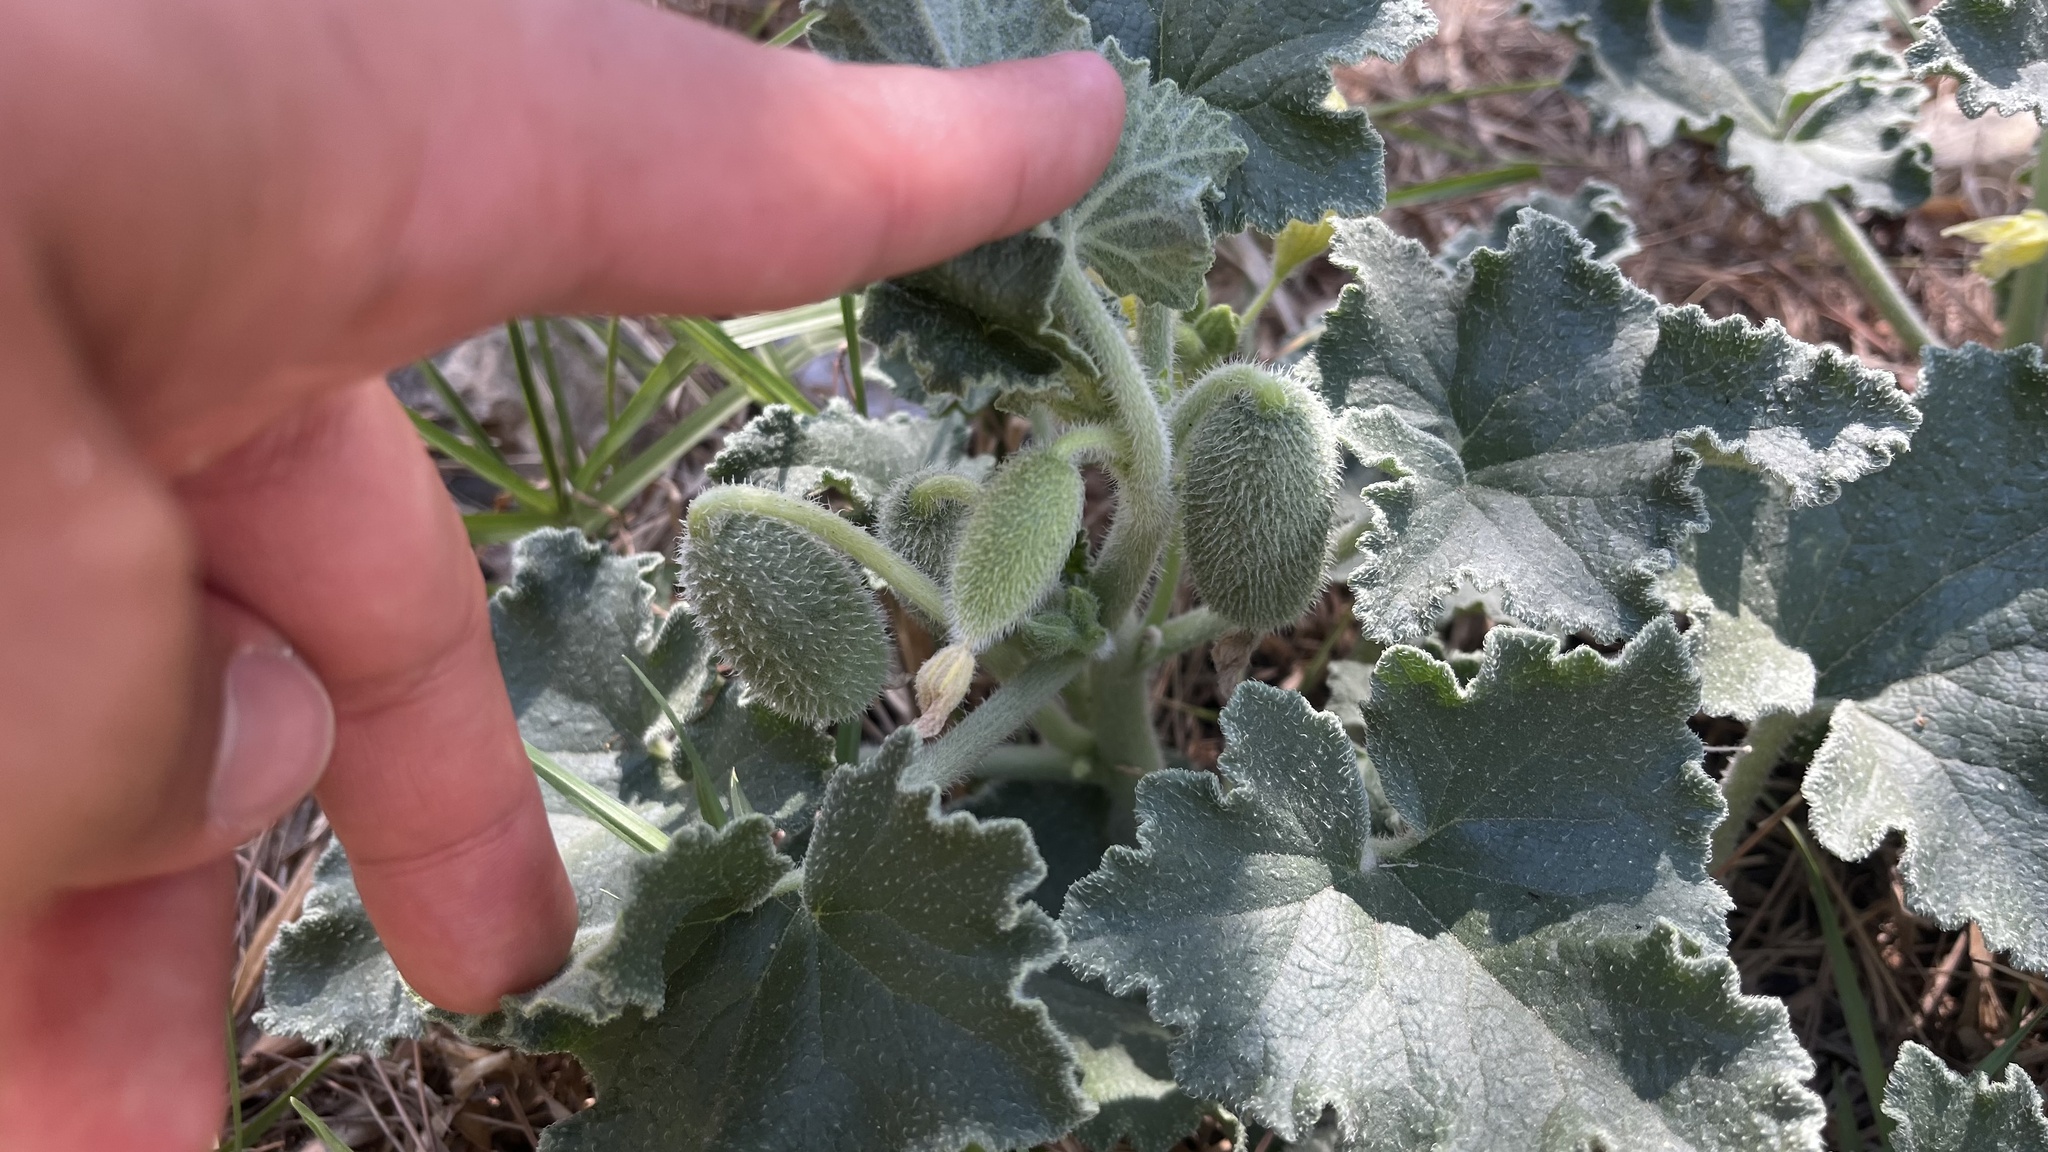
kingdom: Plantae
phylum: Tracheophyta
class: Magnoliopsida
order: Cucurbitales
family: Cucurbitaceae
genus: Ecballium
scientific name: Ecballium elaterium
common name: Squirting cucumber
